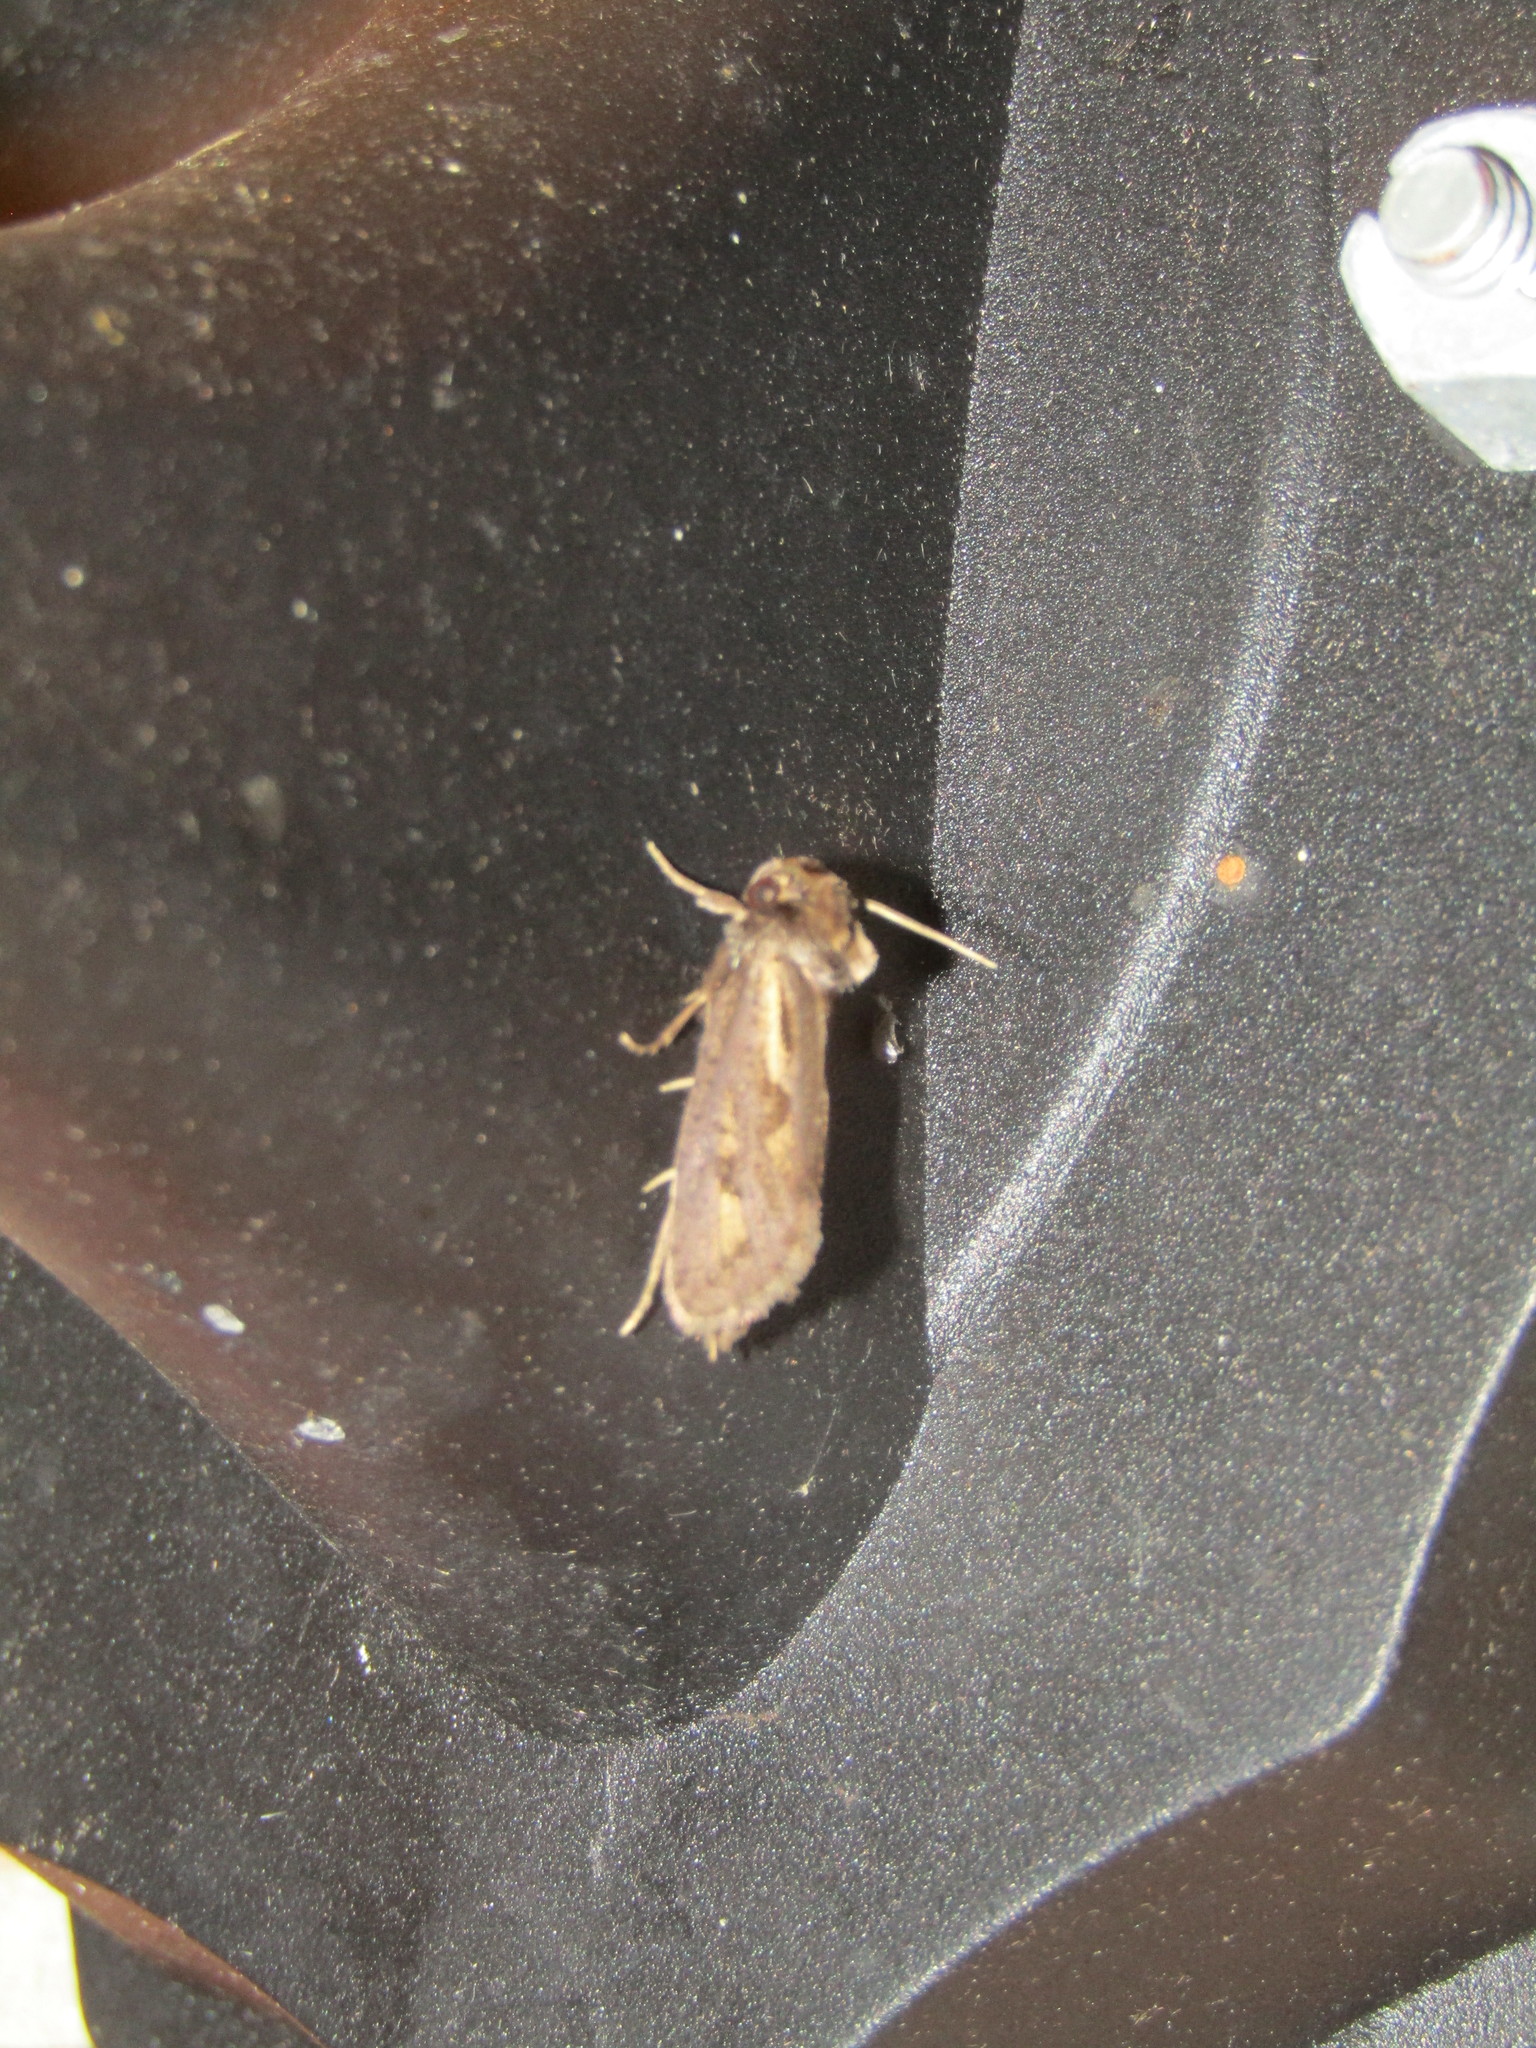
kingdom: Animalia
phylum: Arthropoda
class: Insecta
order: Lepidoptera
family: Tineidae
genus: Acrolophus
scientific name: Acrolophus popeanella
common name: Clemens' grass tubeworm moth
